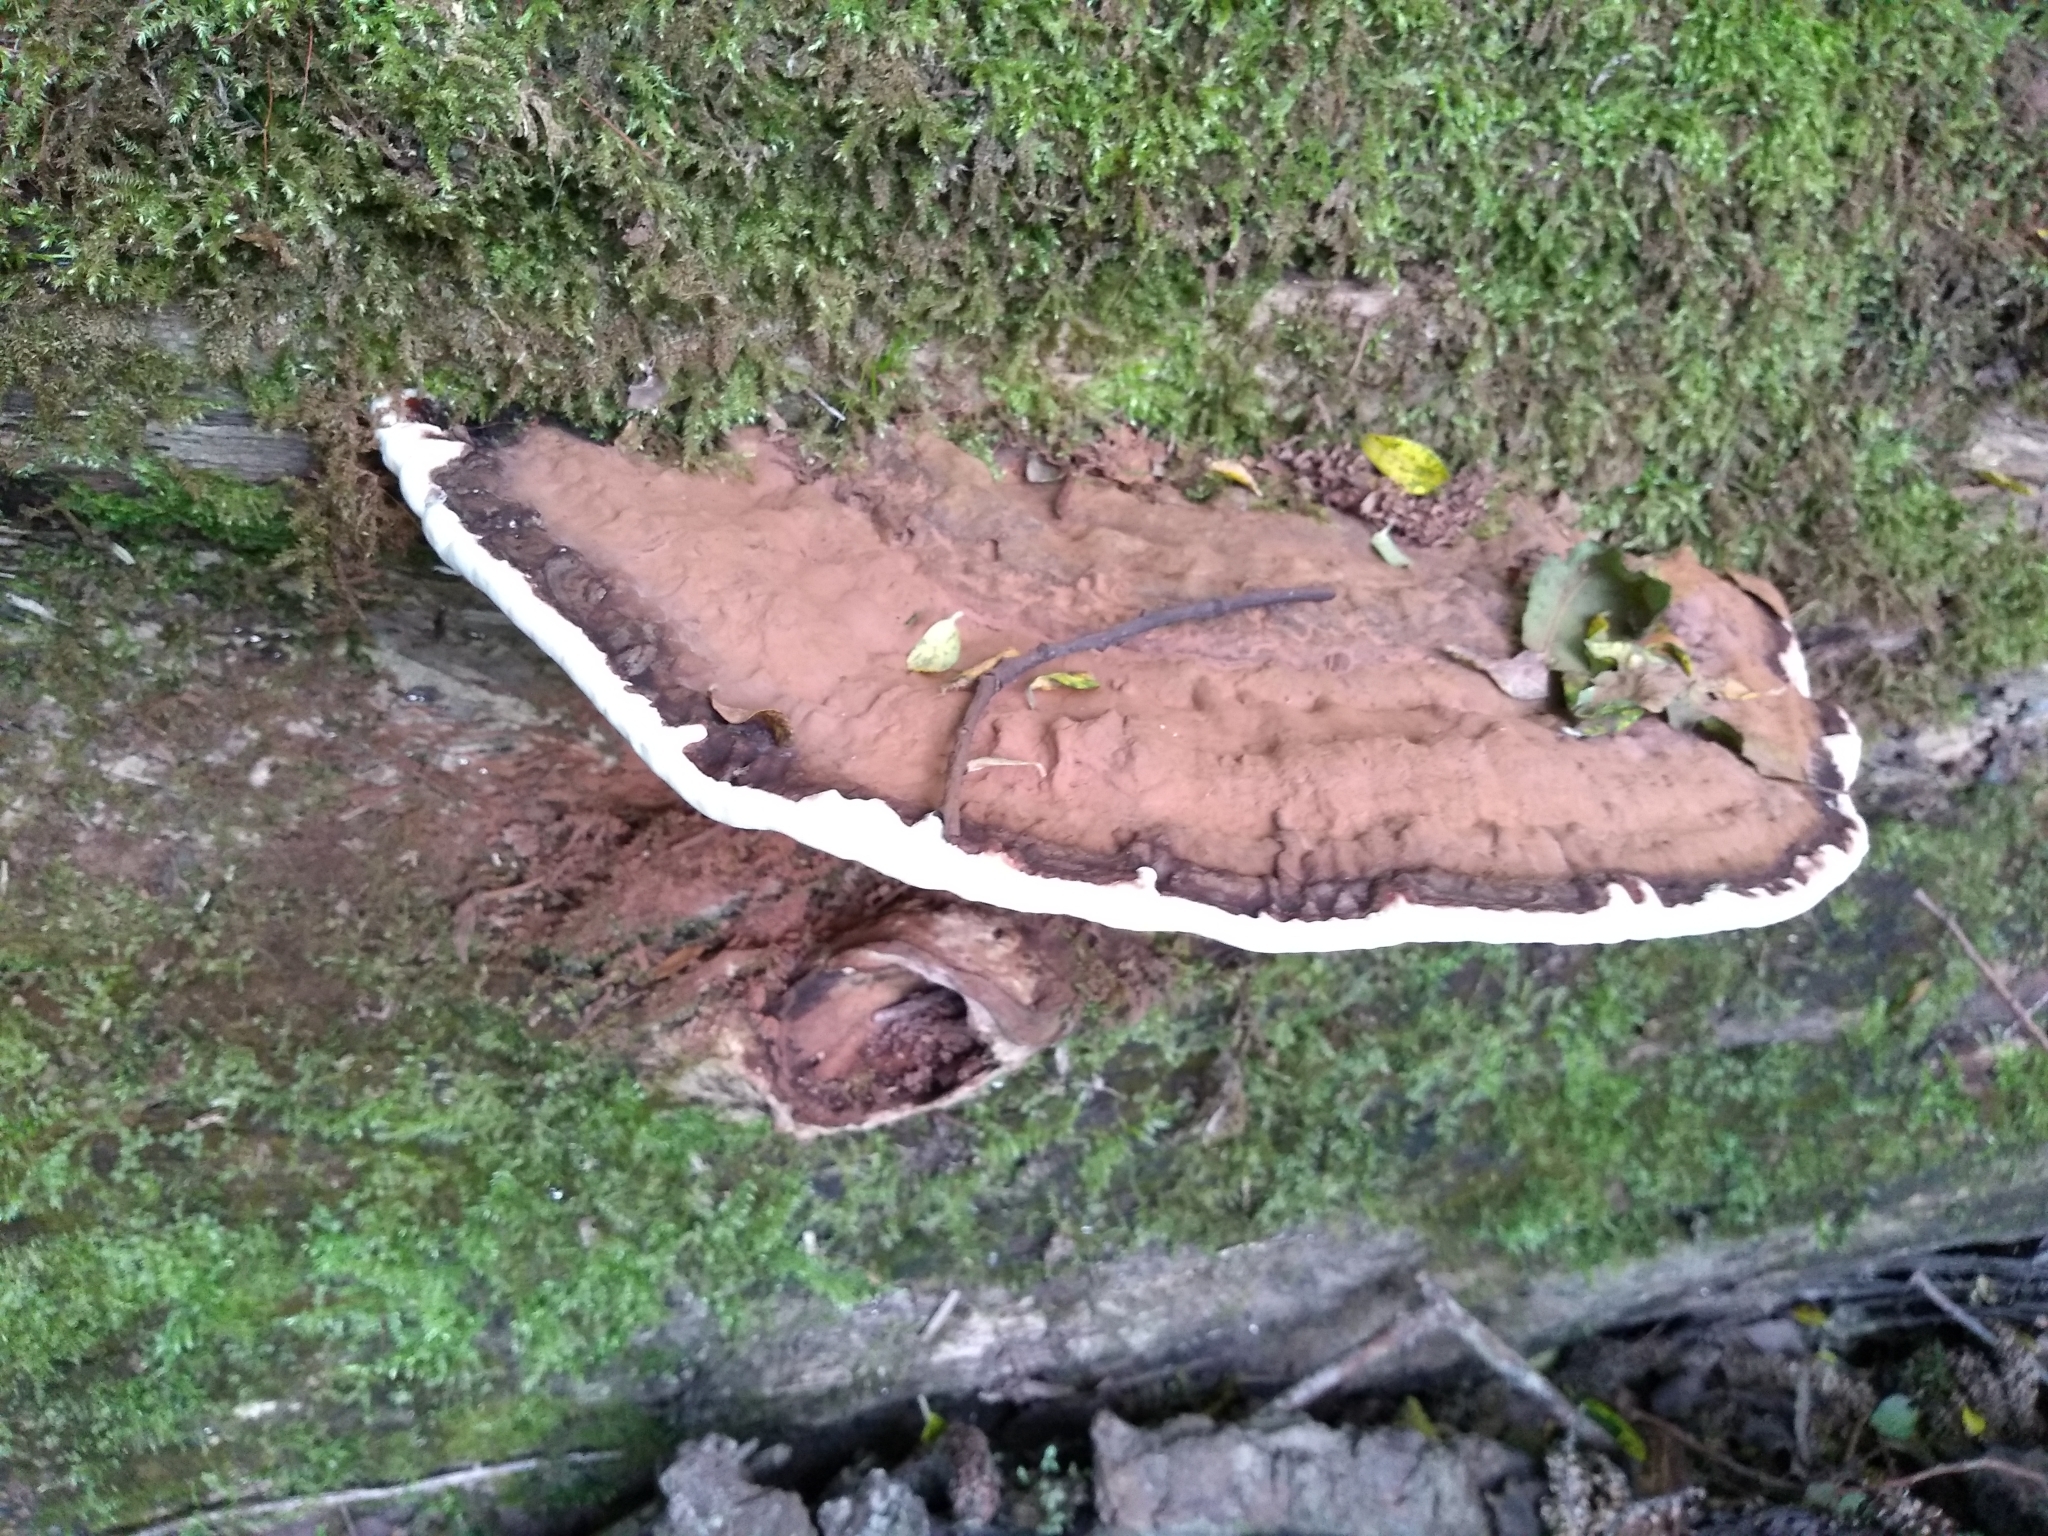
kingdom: Fungi
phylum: Basidiomycota
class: Agaricomycetes
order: Polyporales
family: Polyporaceae
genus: Ganoderma
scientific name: Ganoderma applanatum
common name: Artist's bracket
